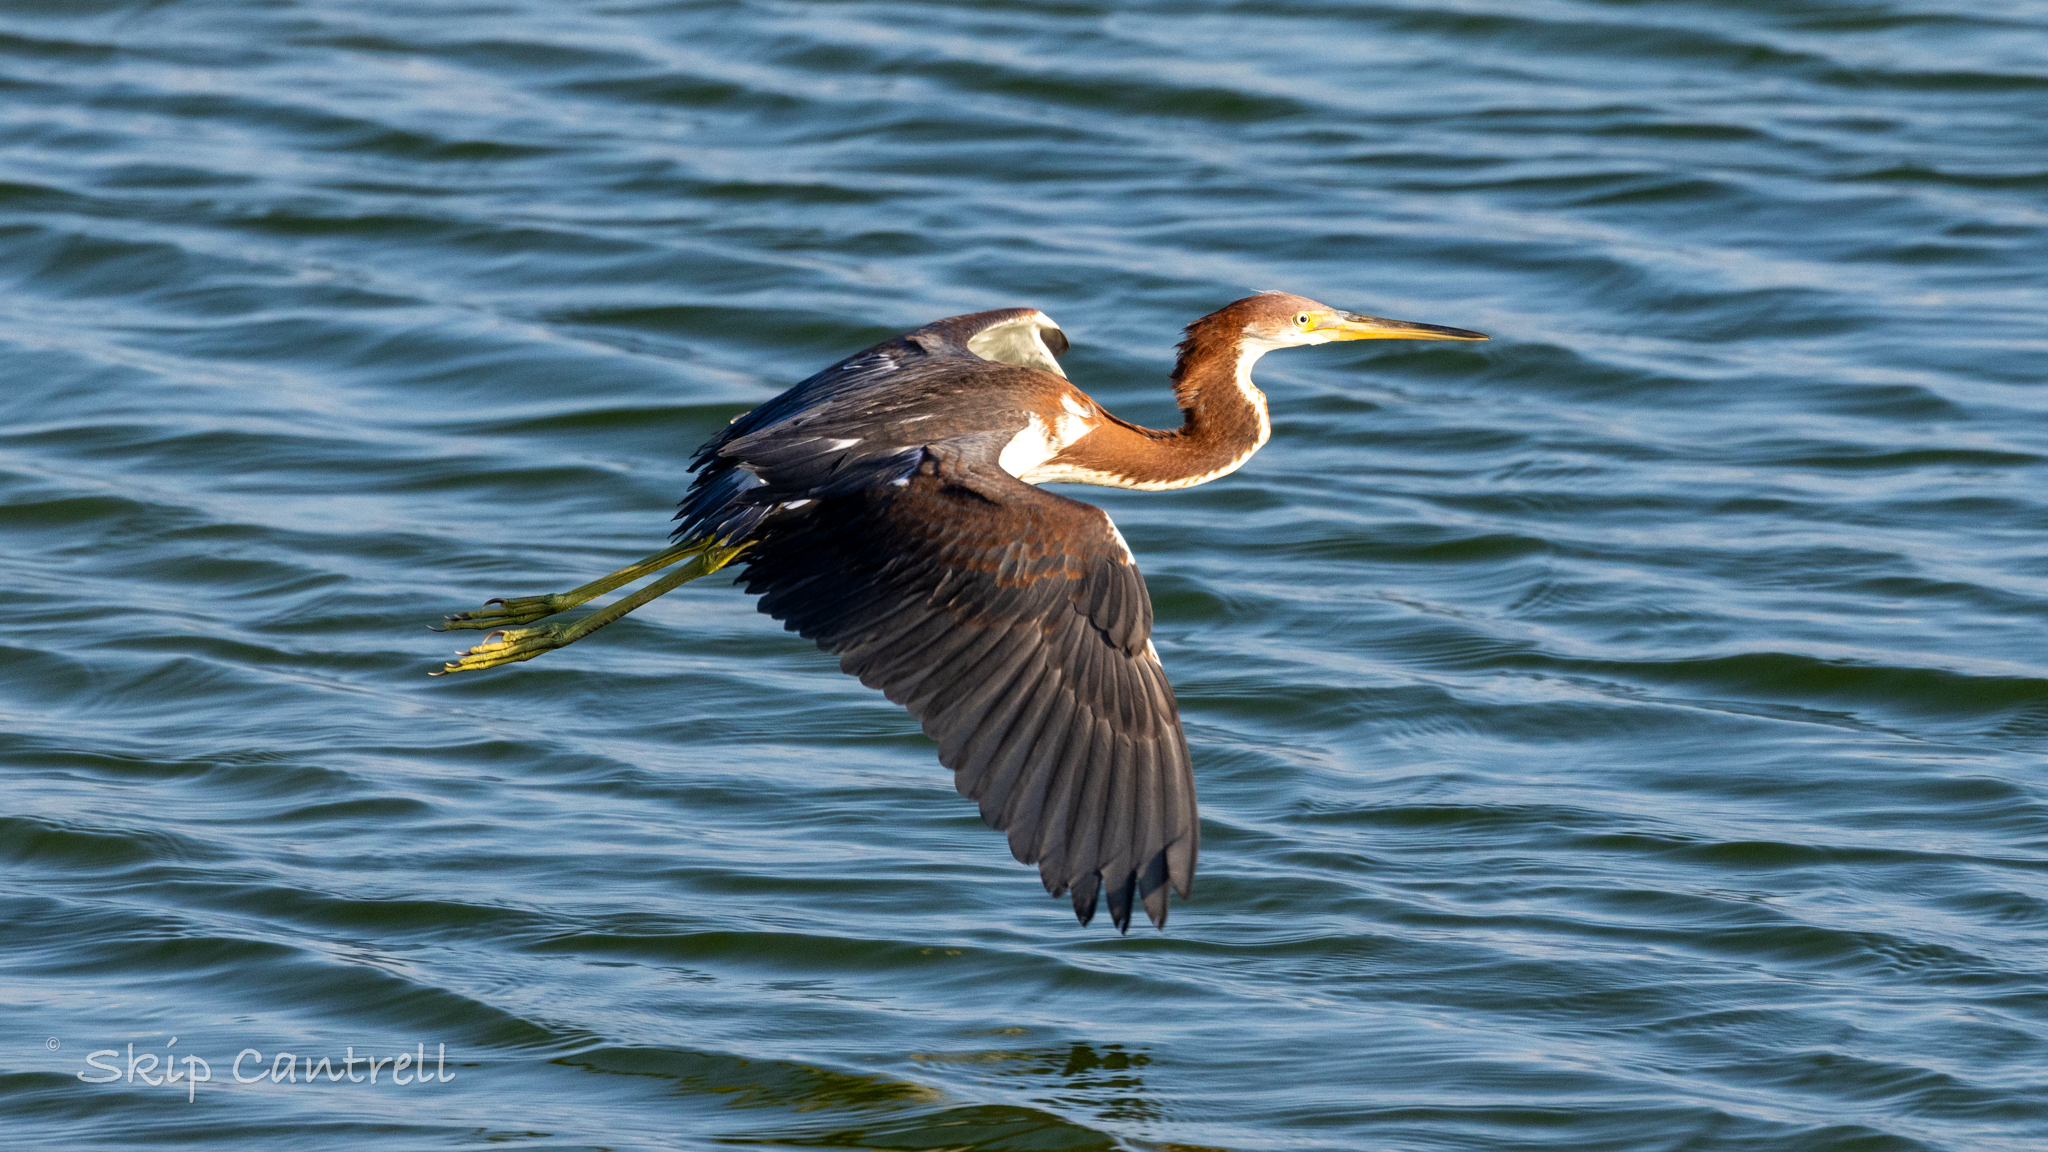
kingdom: Animalia
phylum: Chordata
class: Aves
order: Pelecaniformes
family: Ardeidae
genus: Egretta
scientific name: Egretta tricolor
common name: Tricolored heron
